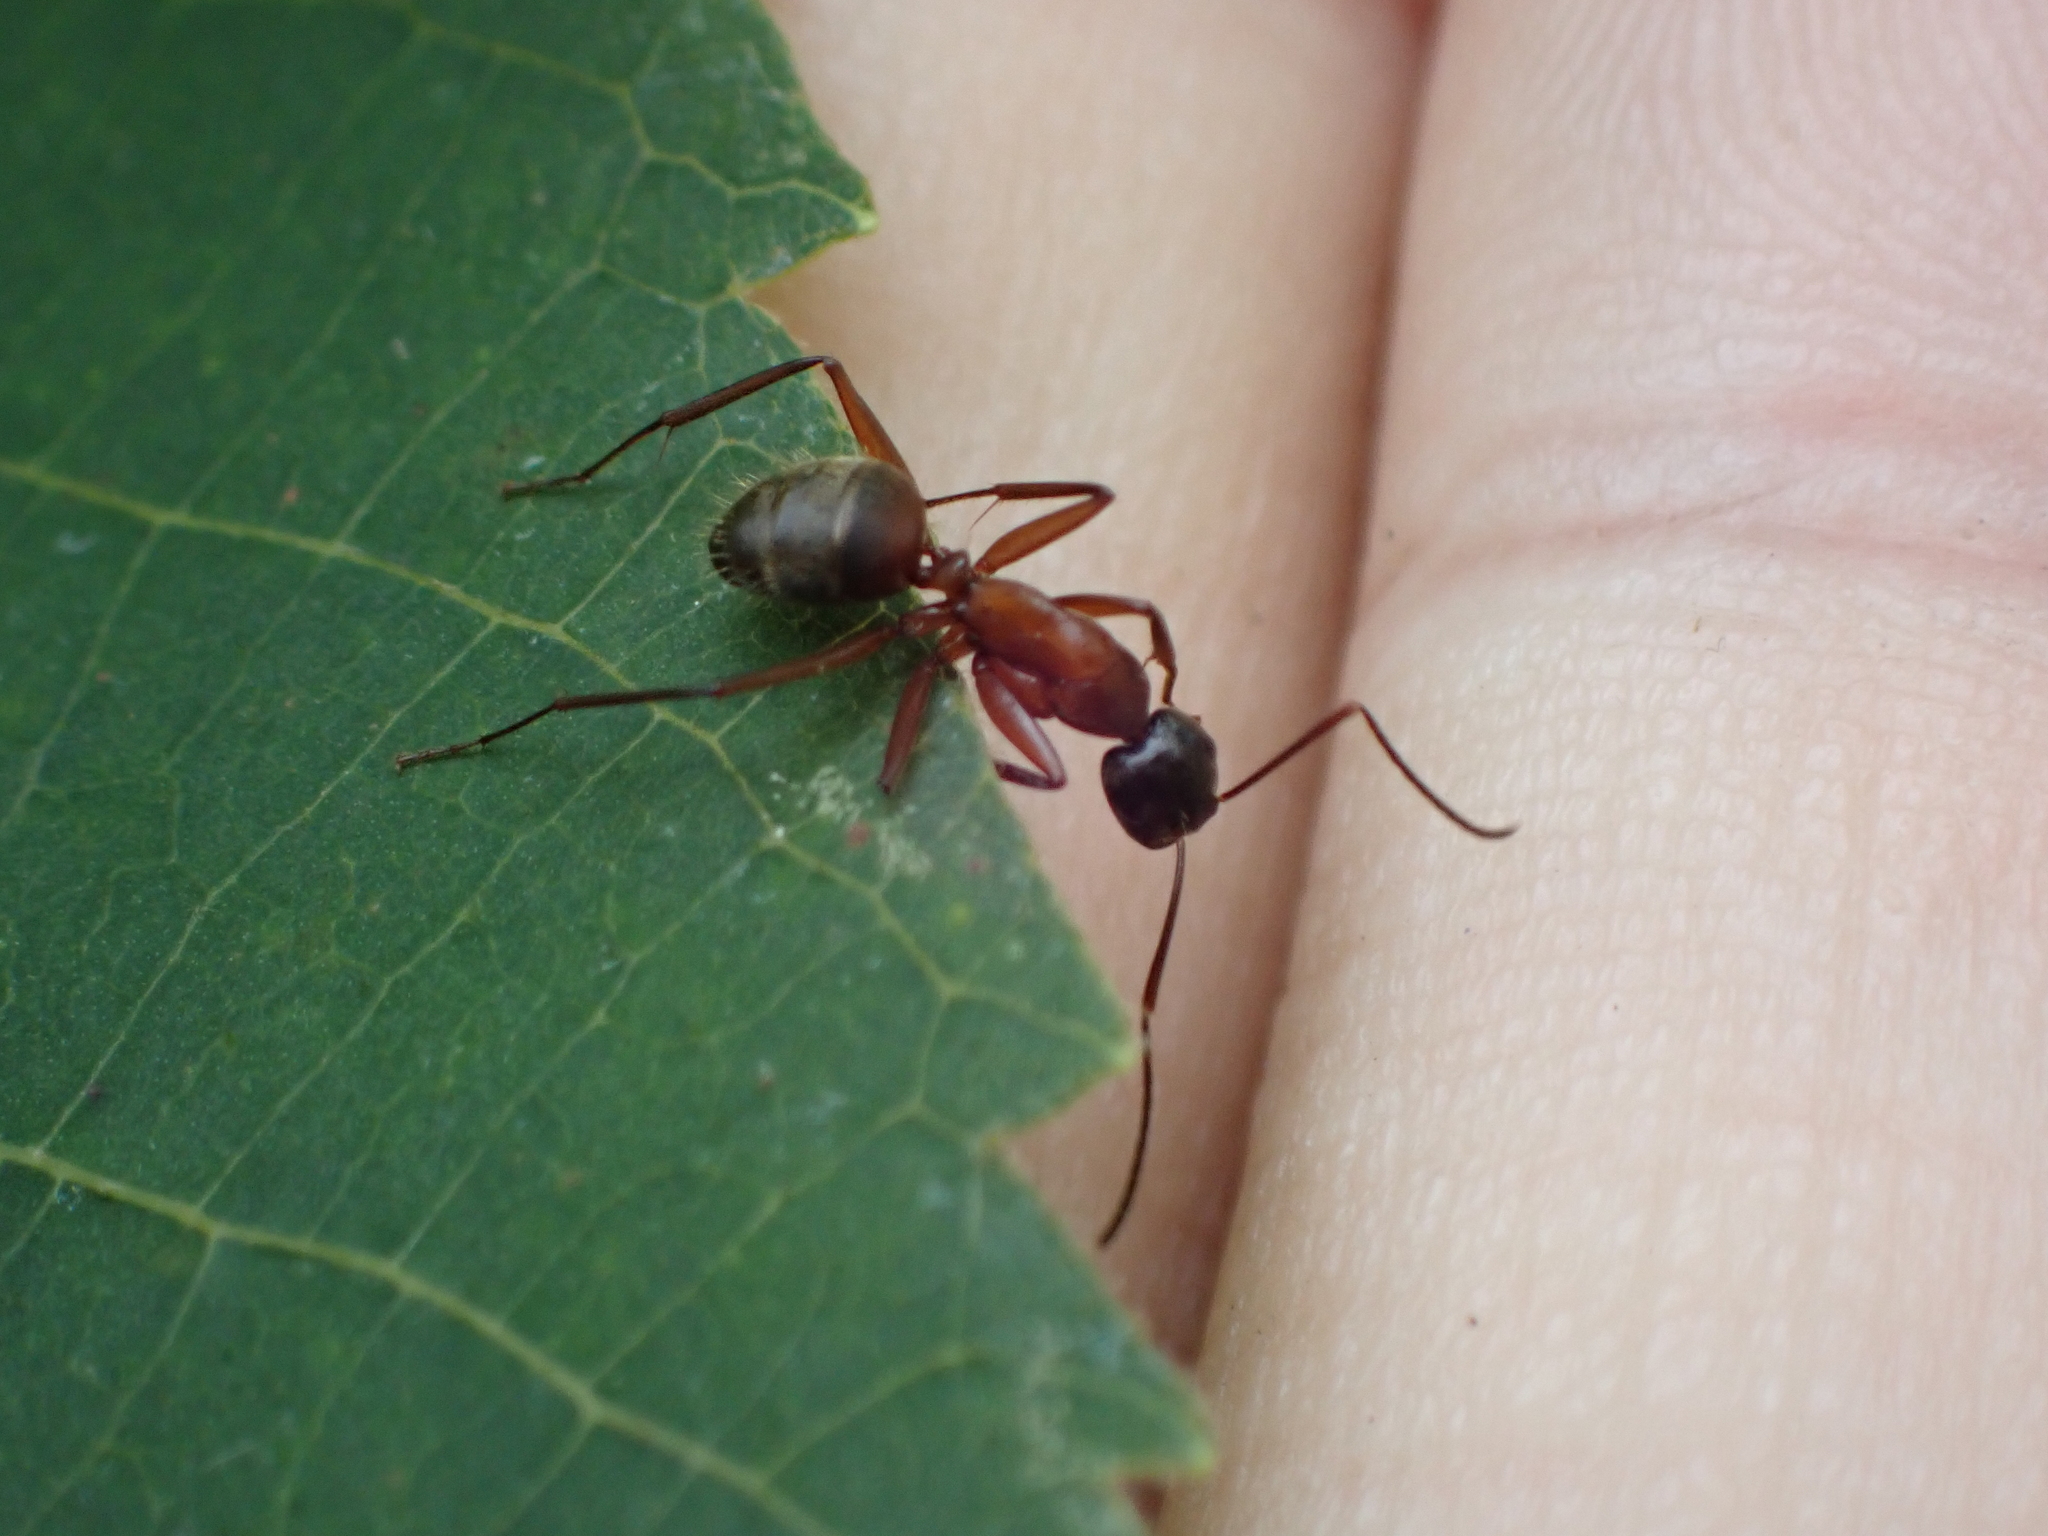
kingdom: Animalia
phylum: Arthropoda
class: Insecta
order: Hymenoptera
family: Formicidae
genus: Camponotus
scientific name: Camponotus chromaiodes
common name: Red carpenter ant
